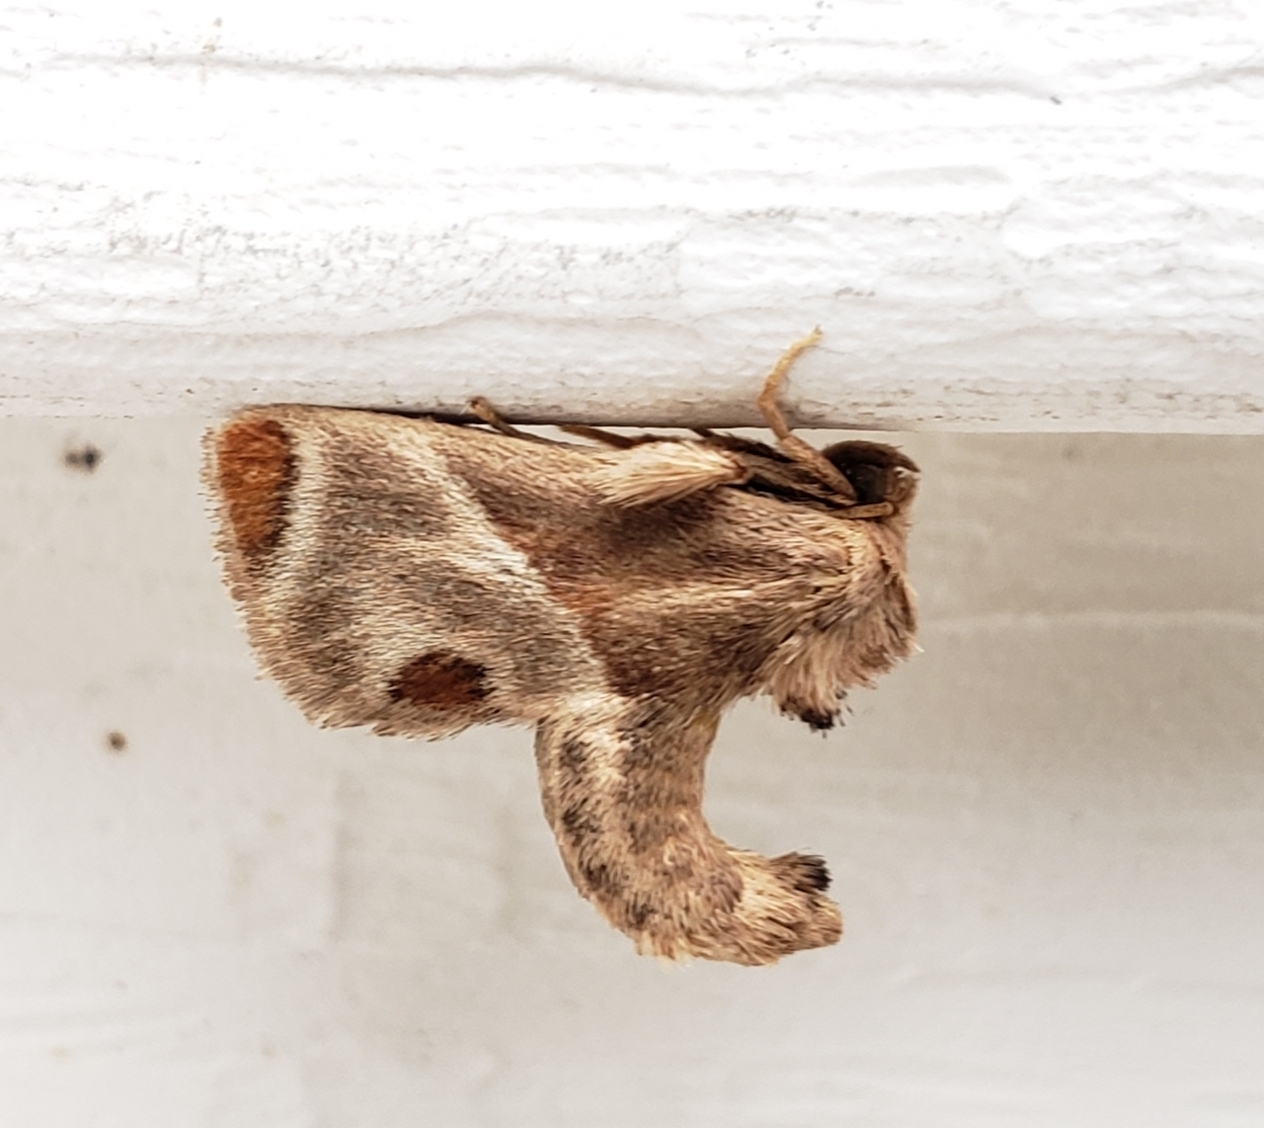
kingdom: Animalia
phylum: Arthropoda
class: Insecta
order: Lepidoptera
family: Limacodidae
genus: Apoda
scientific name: Apoda biguttata
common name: Shagreened slug moth
